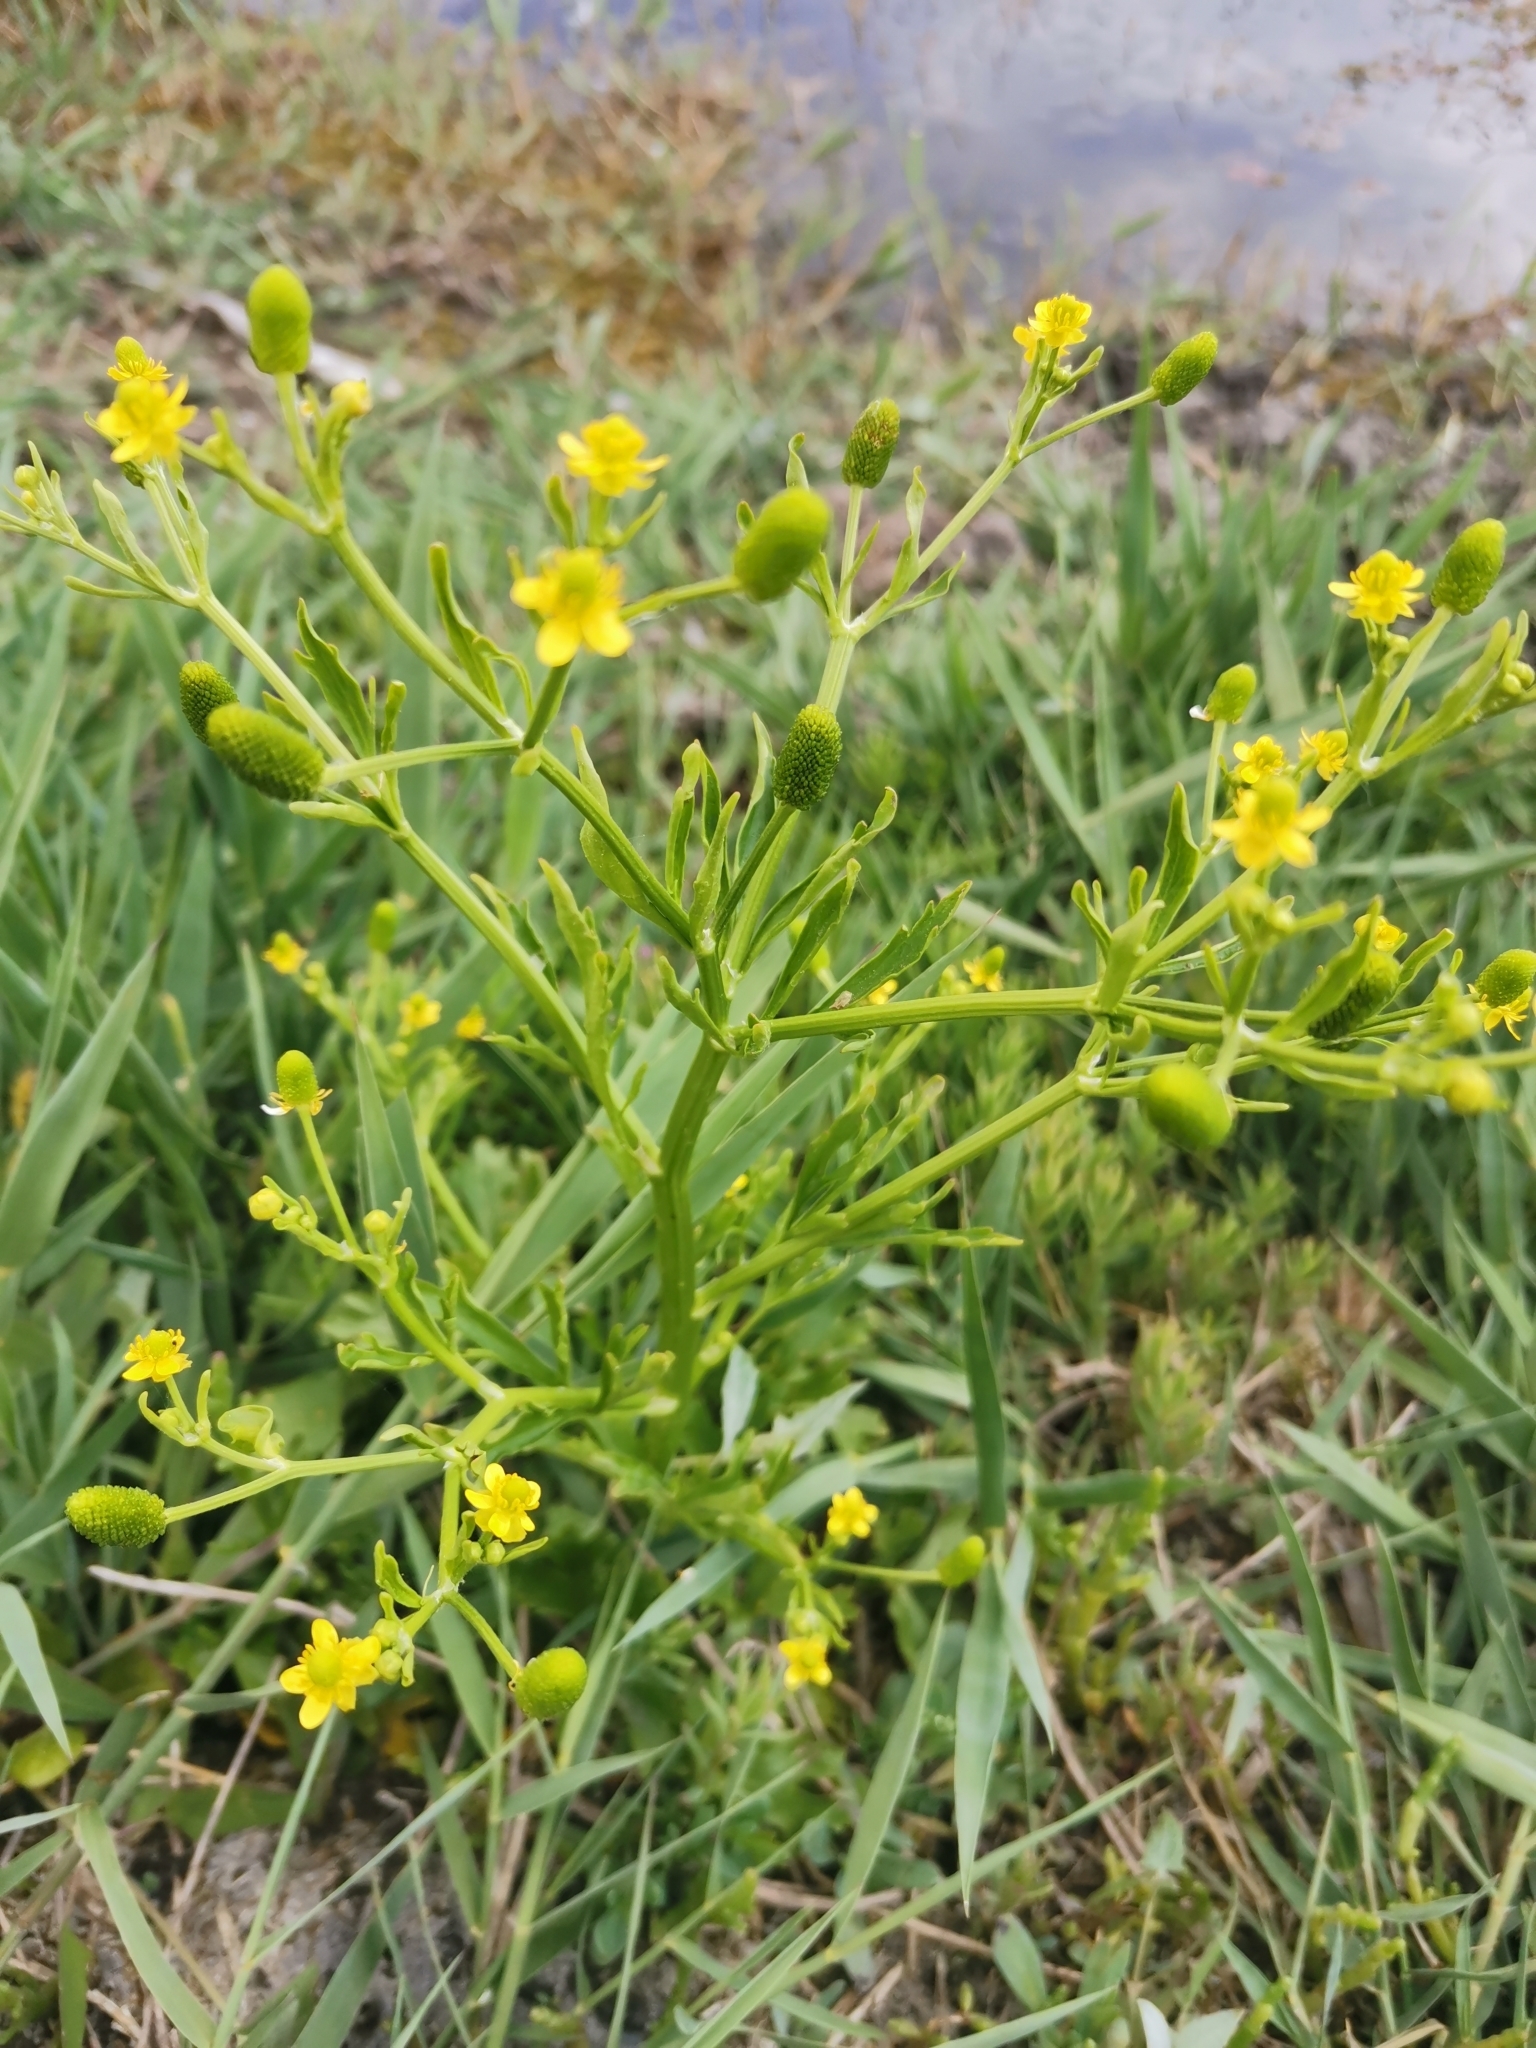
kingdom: Plantae
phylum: Tracheophyta
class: Magnoliopsida
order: Ranunculales
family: Ranunculaceae
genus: Ranunculus
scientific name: Ranunculus sceleratus
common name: Celery-leaved buttercup
